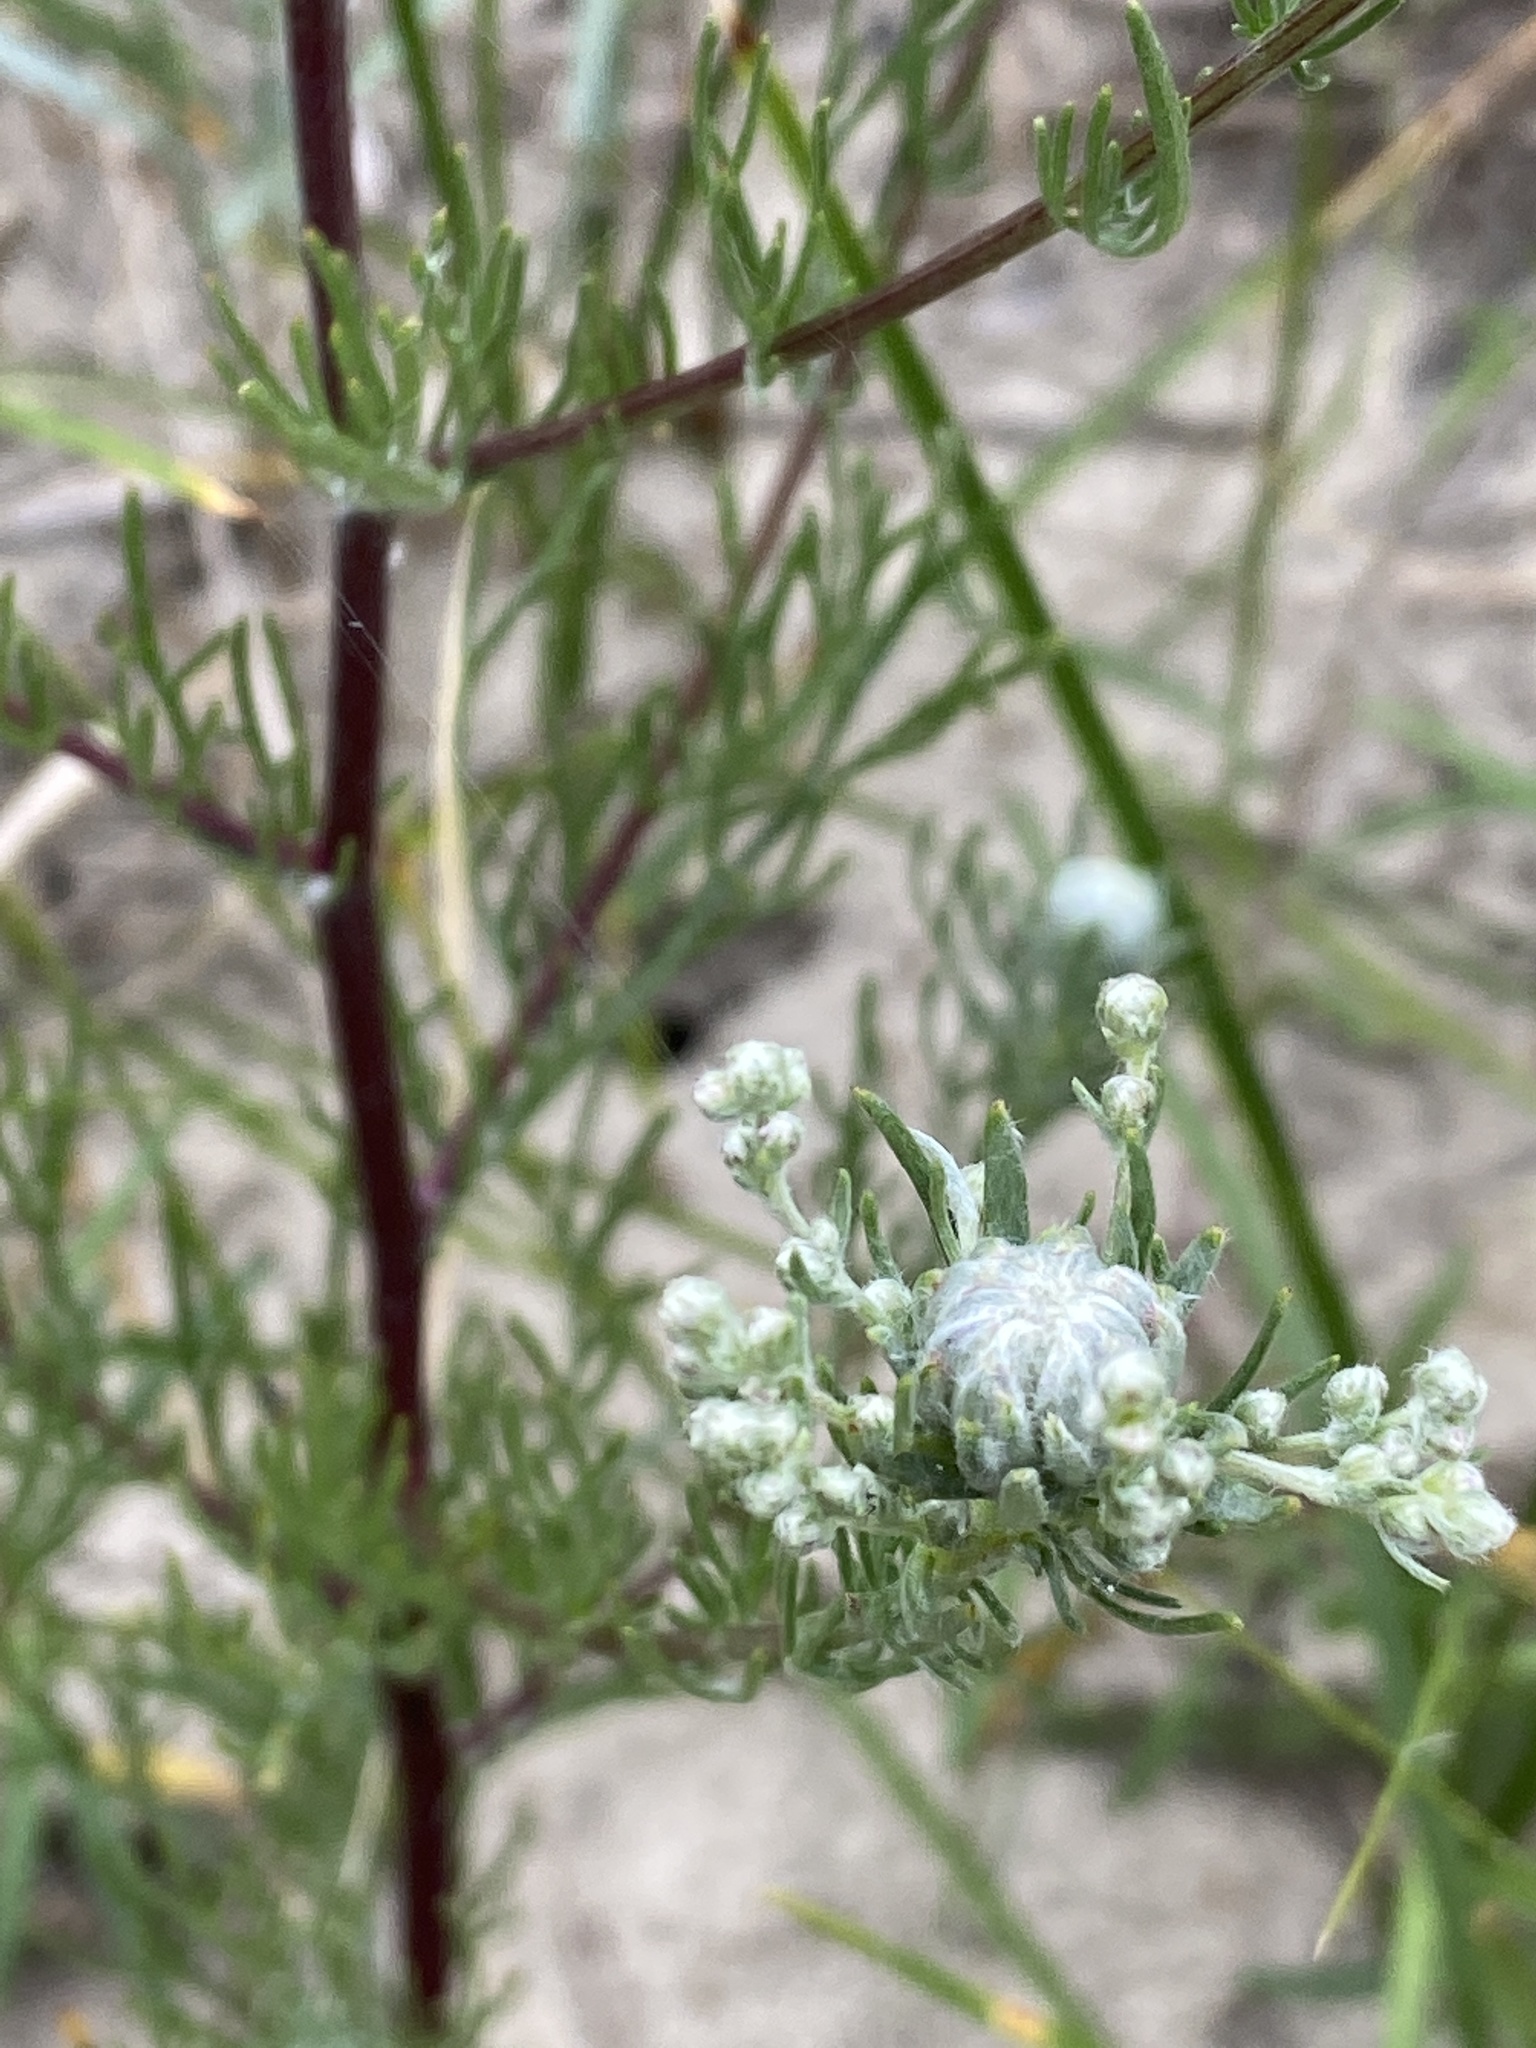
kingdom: Plantae
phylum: Tracheophyta
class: Magnoliopsida
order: Asterales
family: Asteraceae
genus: Artemisia
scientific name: Artemisia campestris
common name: Field wormwood
